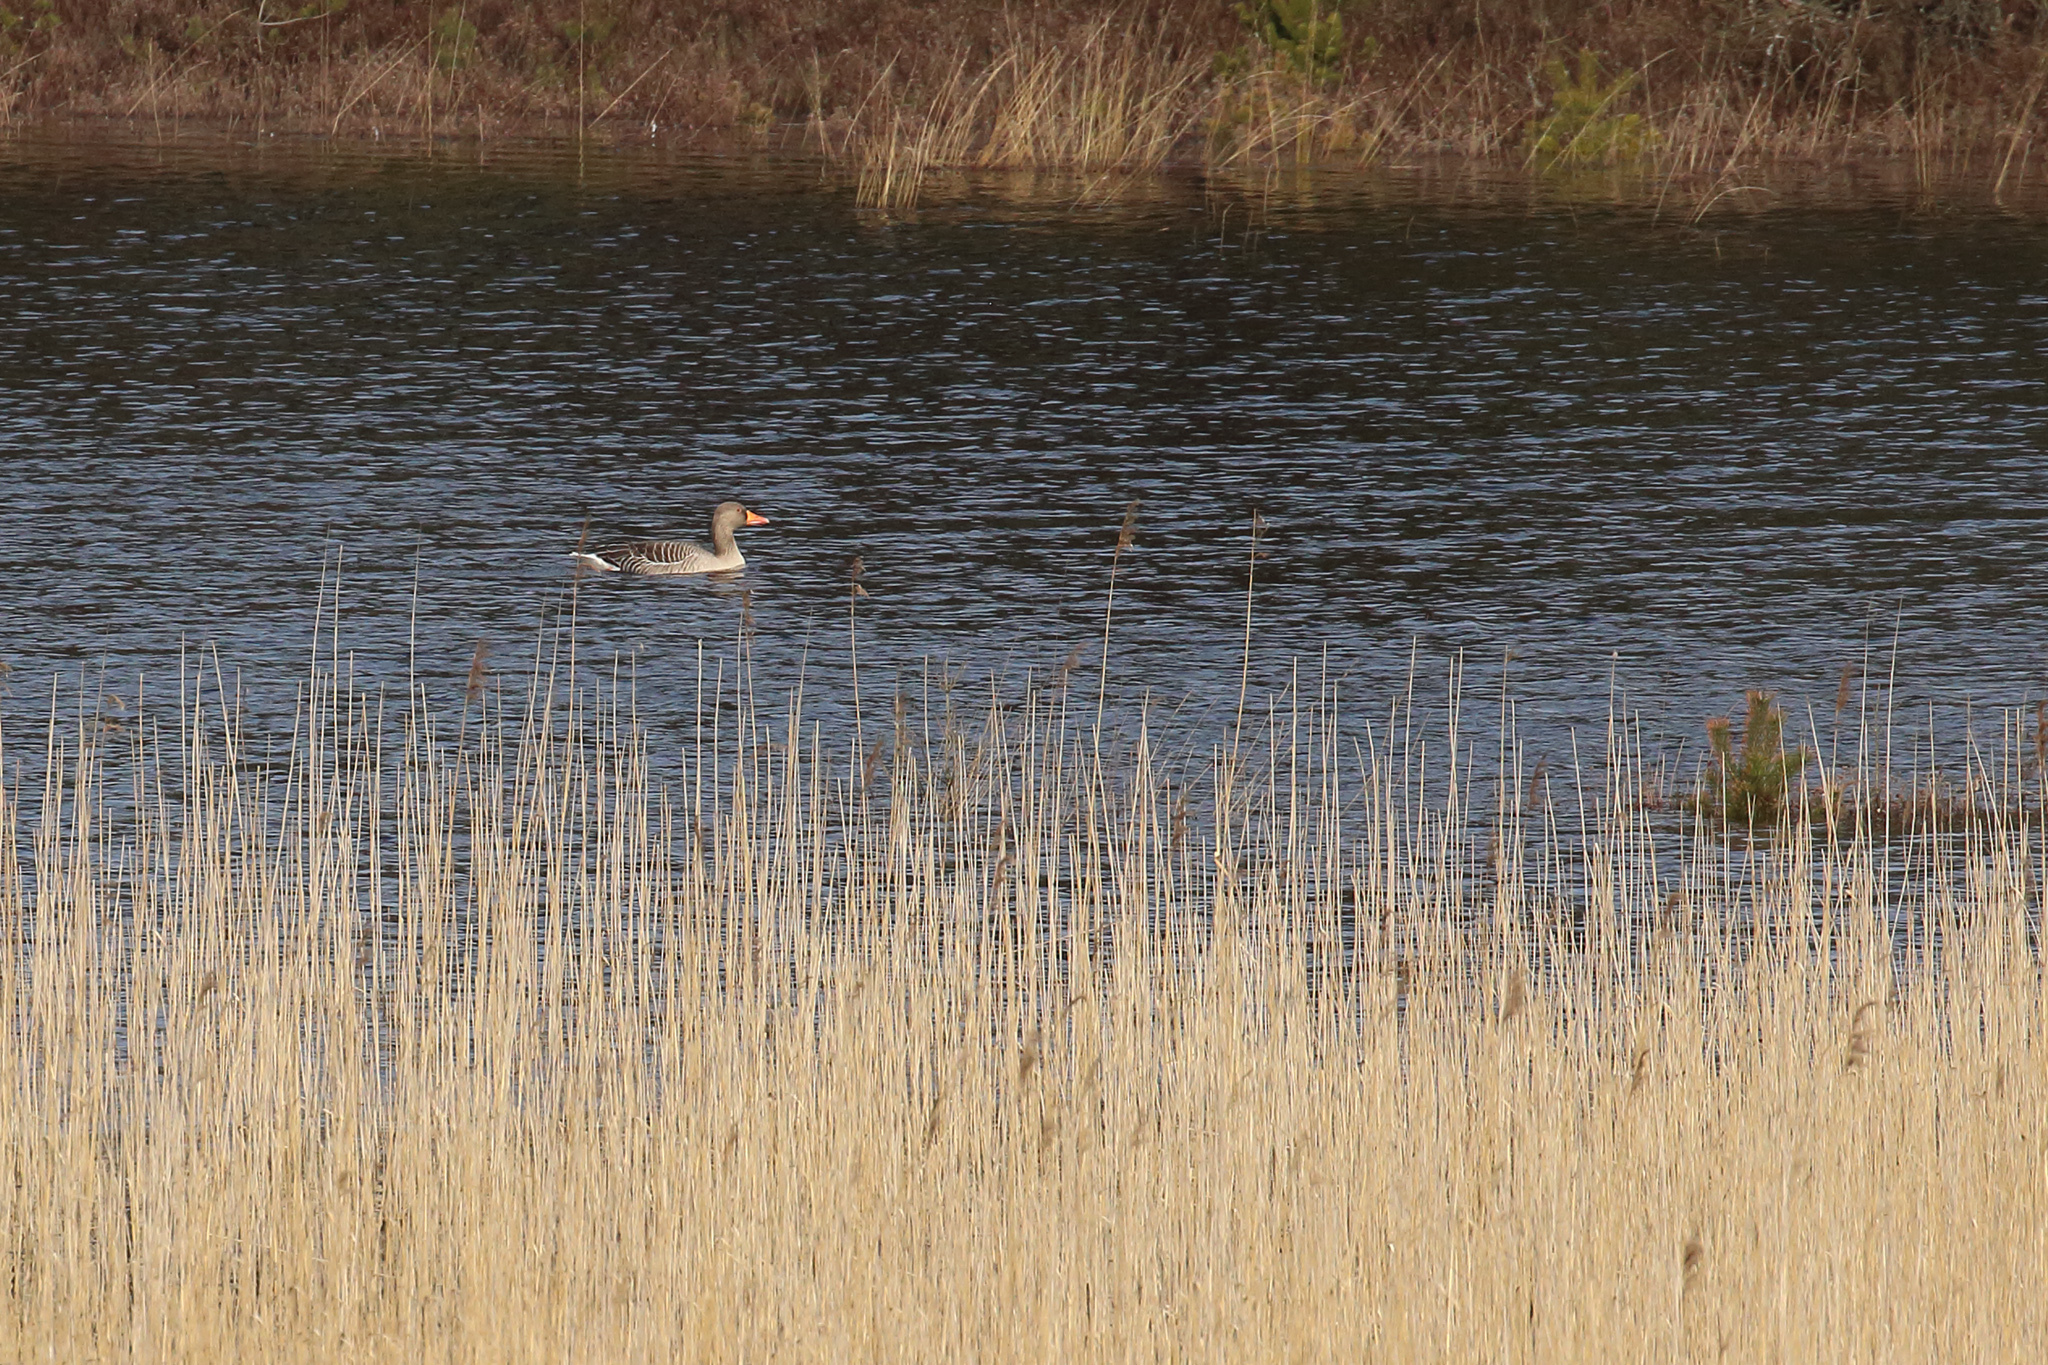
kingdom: Animalia
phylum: Chordata
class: Aves
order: Anseriformes
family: Anatidae
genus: Anser
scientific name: Anser anser
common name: Greylag goose
